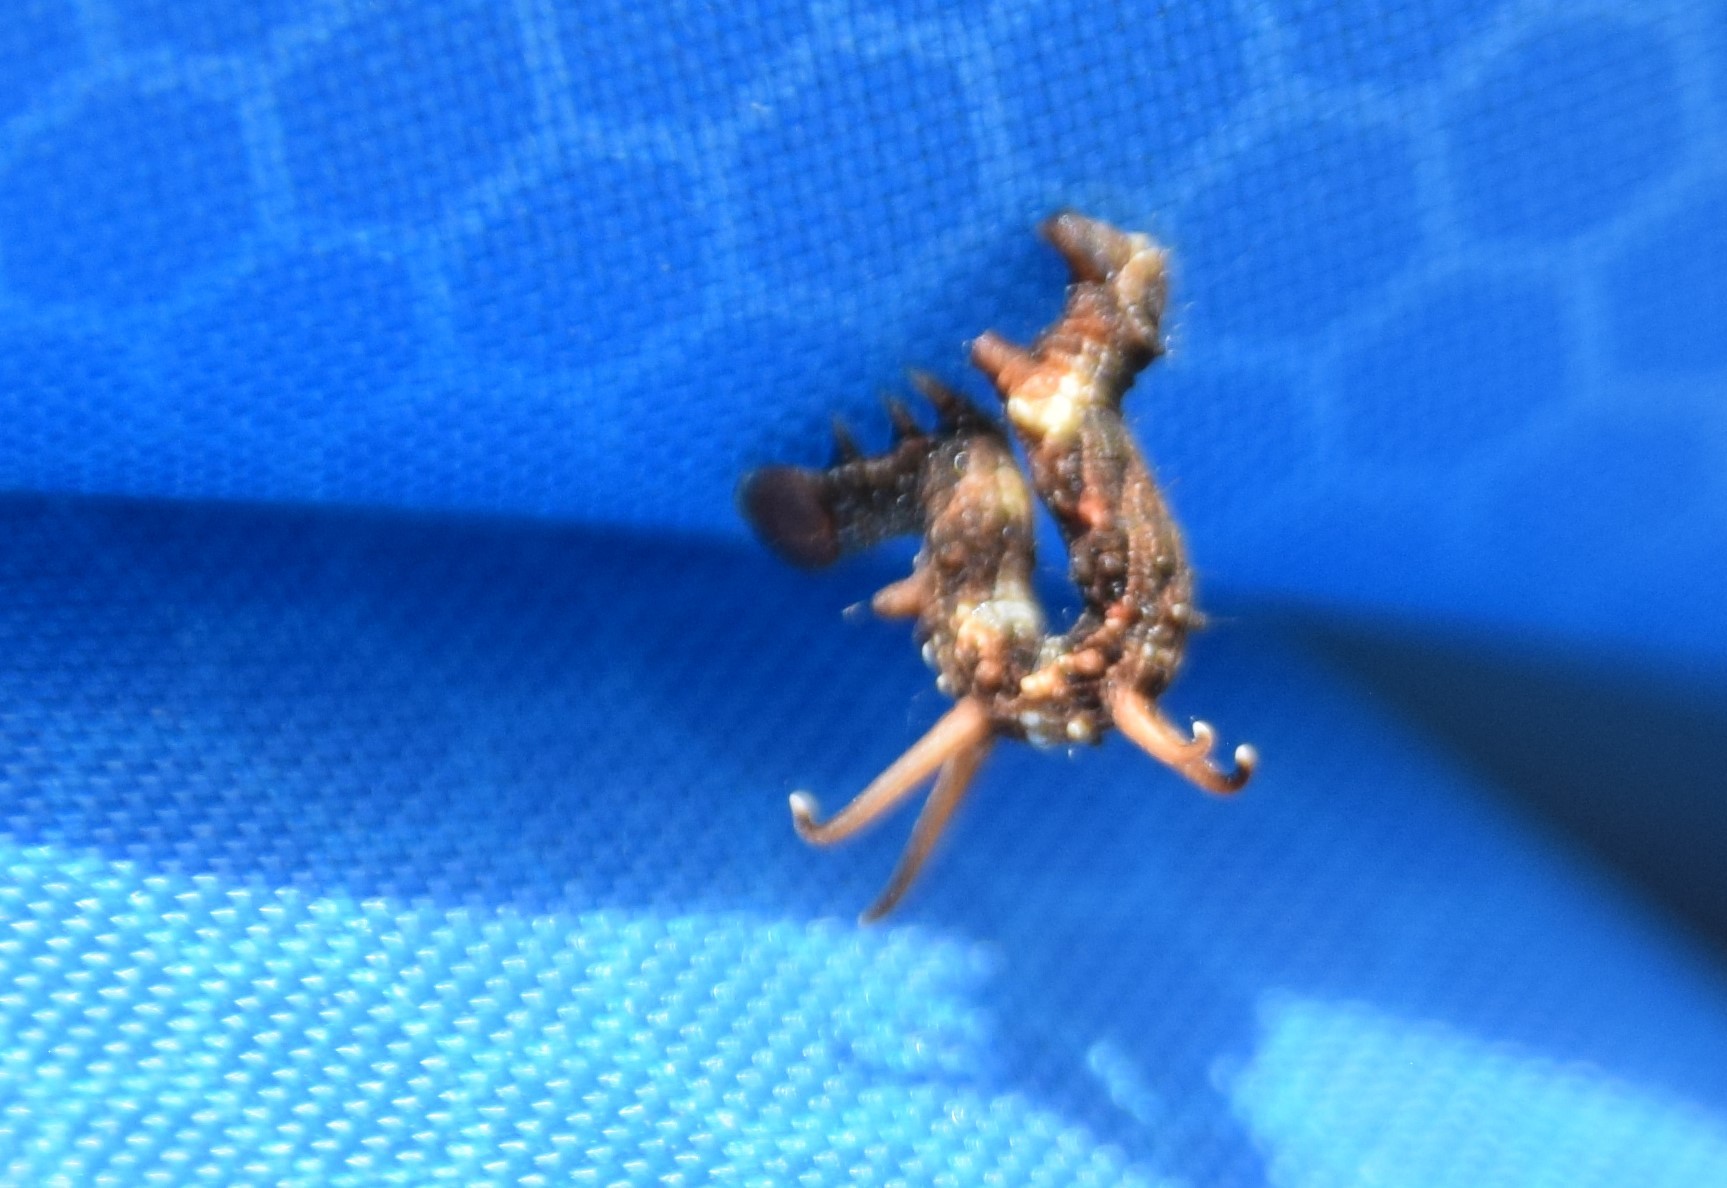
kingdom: Animalia
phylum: Arthropoda
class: Insecta
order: Lepidoptera
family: Geometridae
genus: Nematocampa
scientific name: Nematocampa resistaria
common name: Horned spanworm moth
